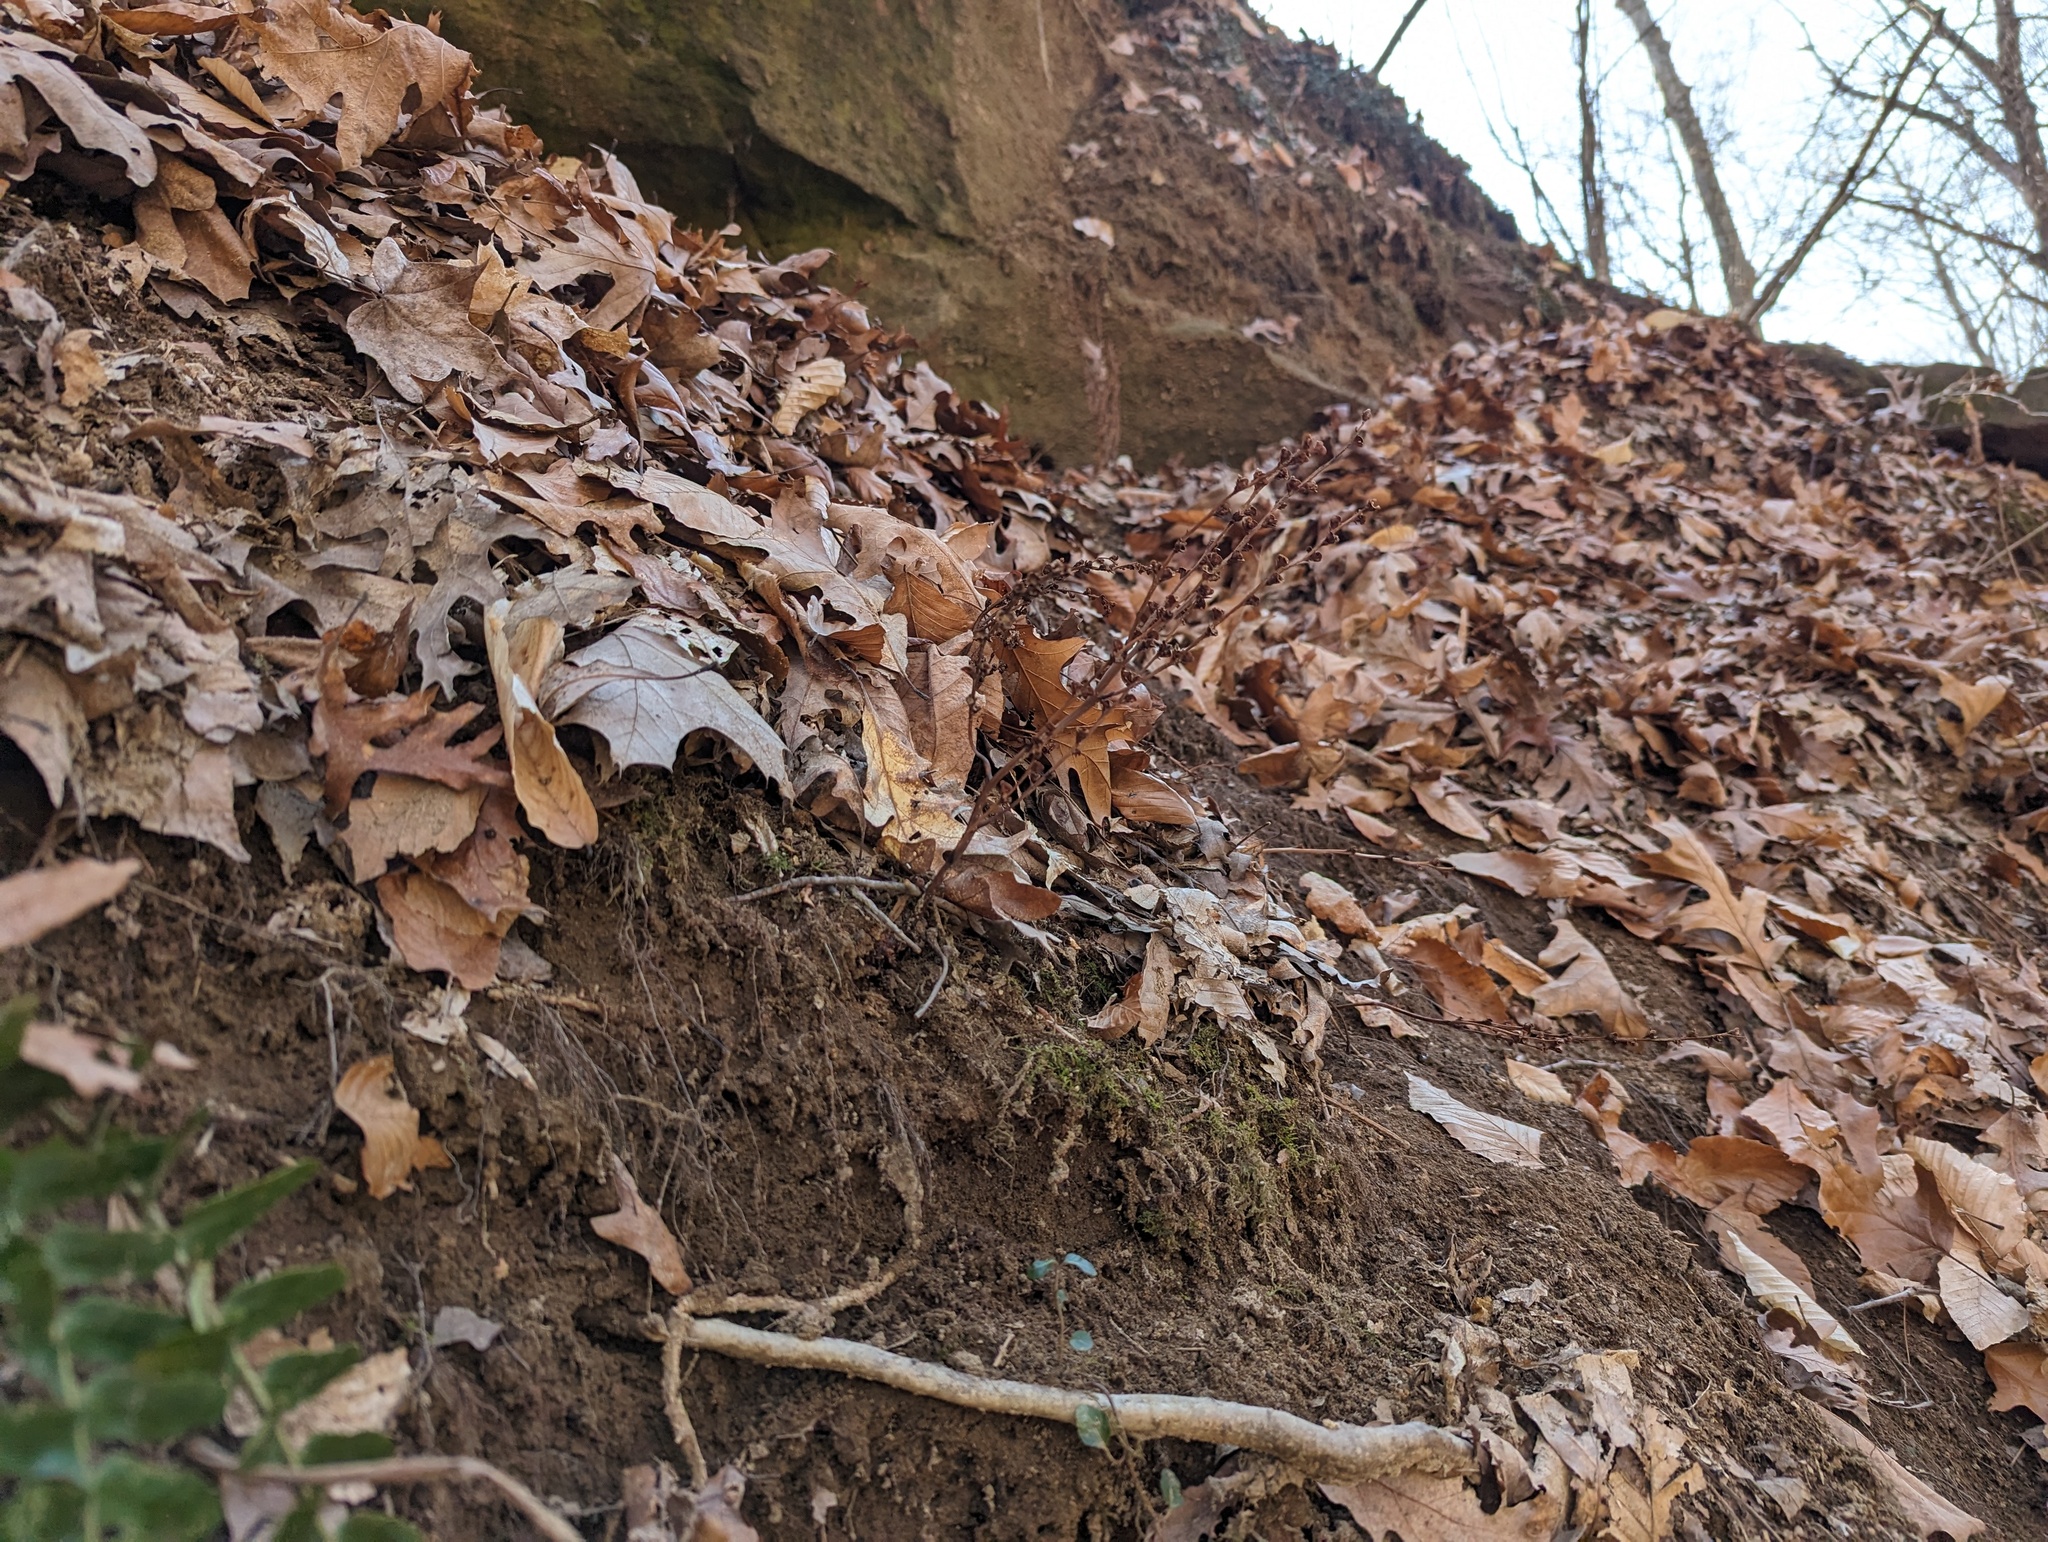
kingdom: Plantae
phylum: Tracheophyta
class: Magnoliopsida
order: Lamiales
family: Orobanchaceae
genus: Epifagus
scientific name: Epifagus virginiana
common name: Beechdrops
